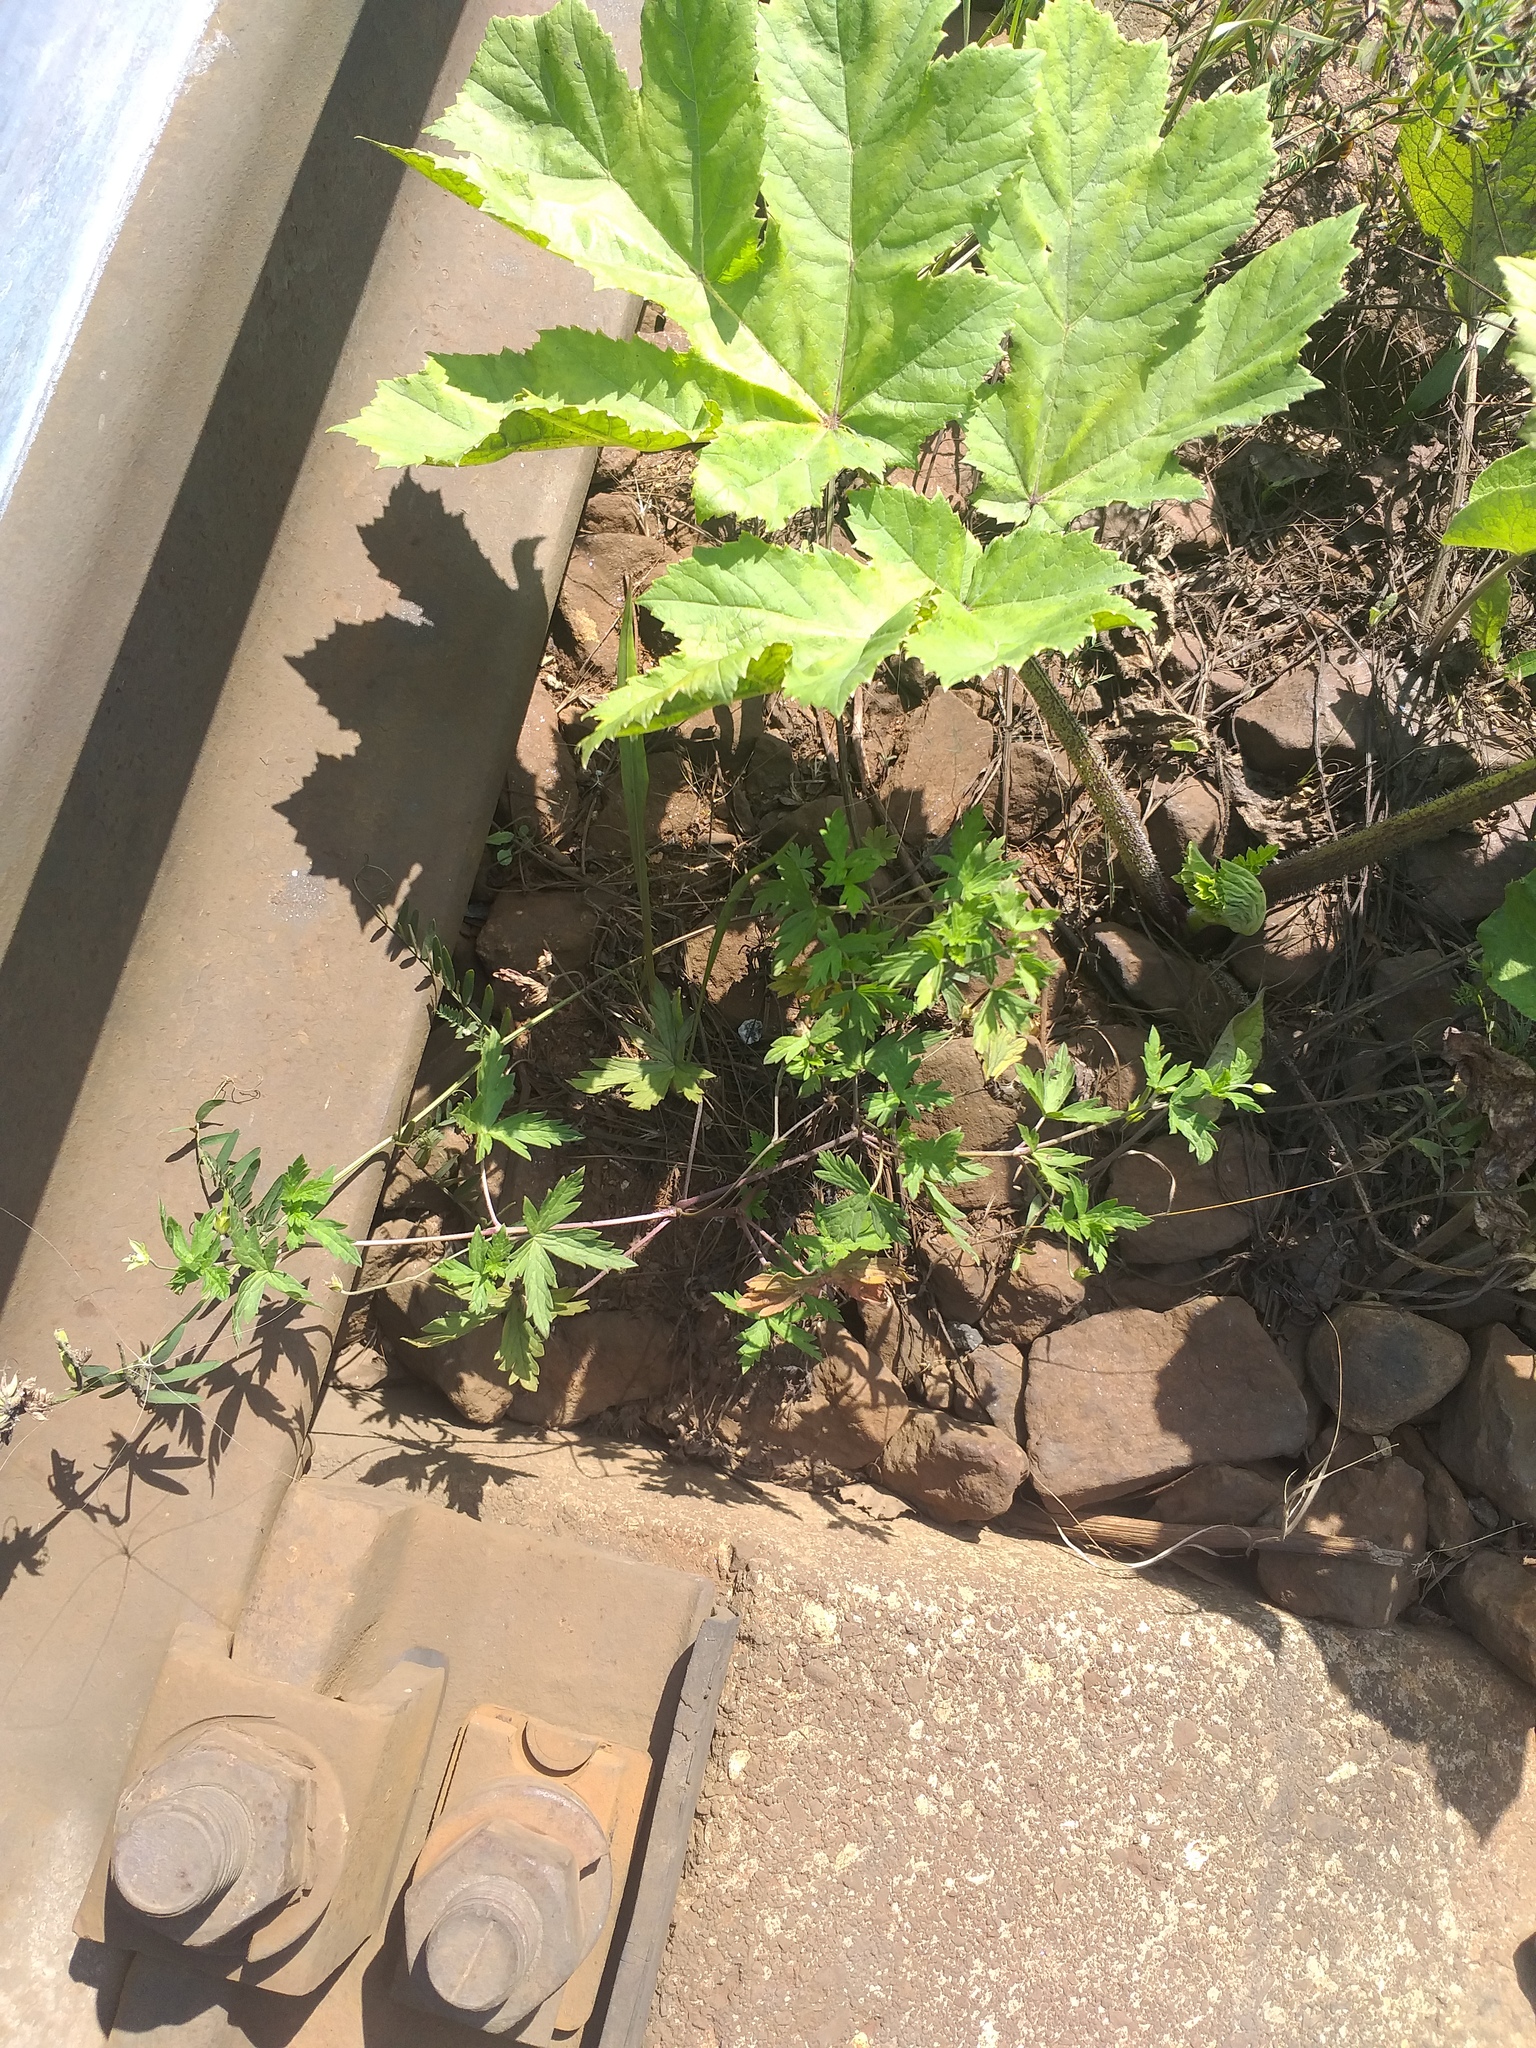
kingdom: Plantae
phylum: Tracheophyta
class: Magnoliopsida
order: Geraniales
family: Geraniaceae
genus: Geranium
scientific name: Geranium sibiricum
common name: Siberian crane's-bill
